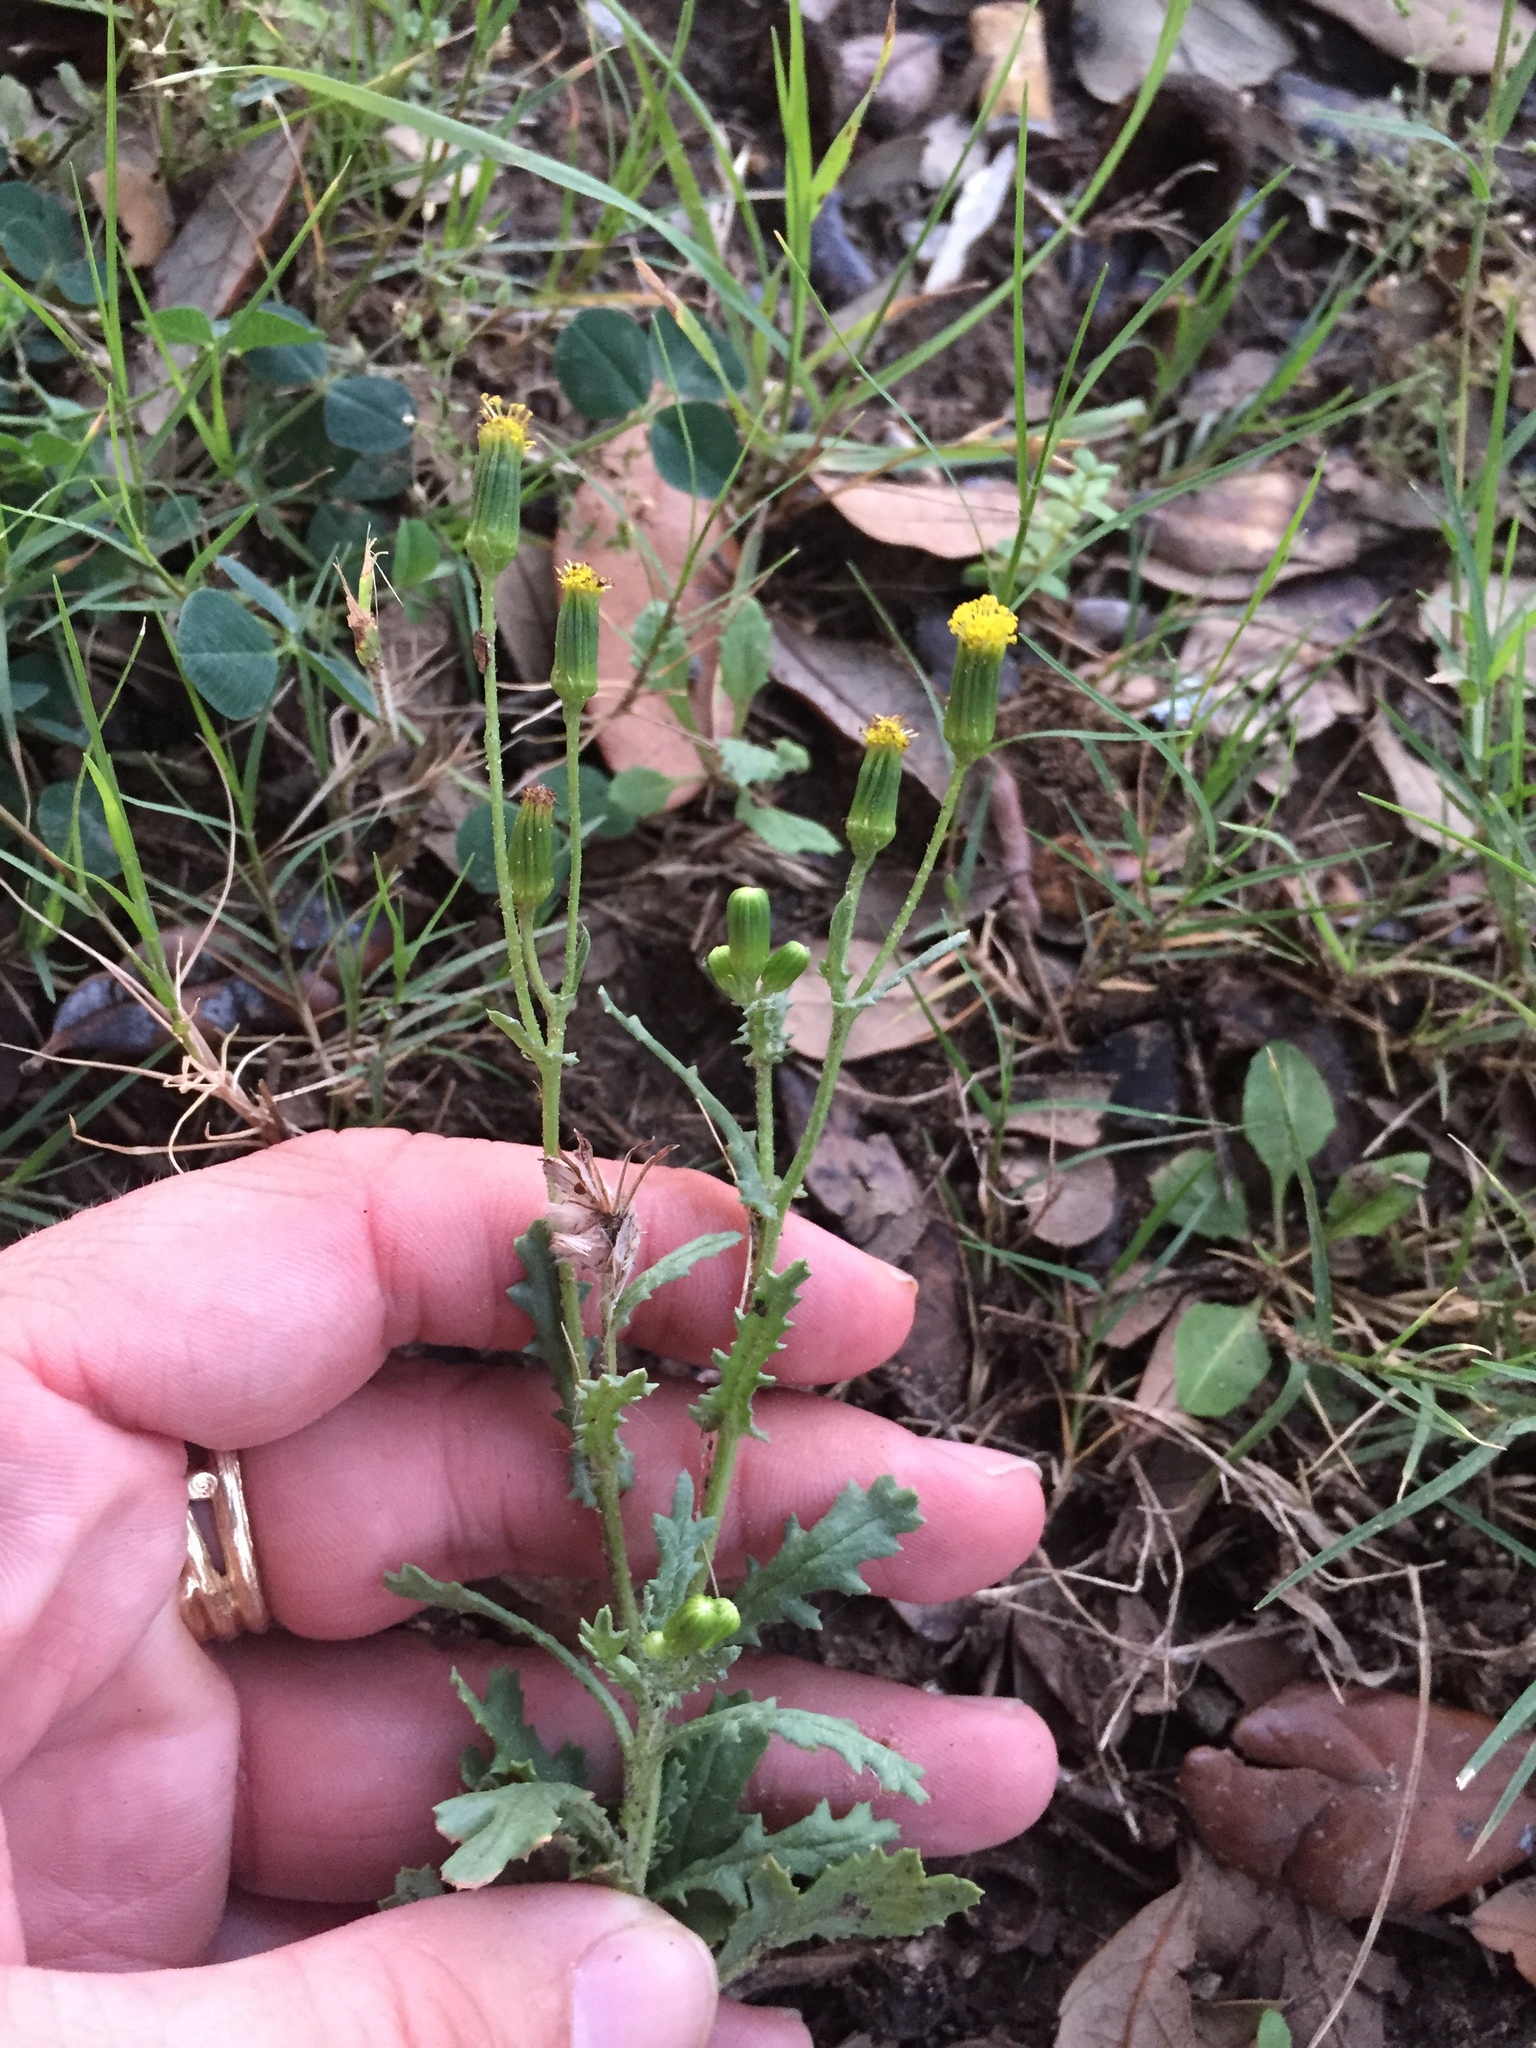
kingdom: Plantae
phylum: Tracheophyta
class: Magnoliopsida
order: Asterales
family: Asteraceae
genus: Senecio
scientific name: Senecio vulgaris
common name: Old-man-in-the-spring
